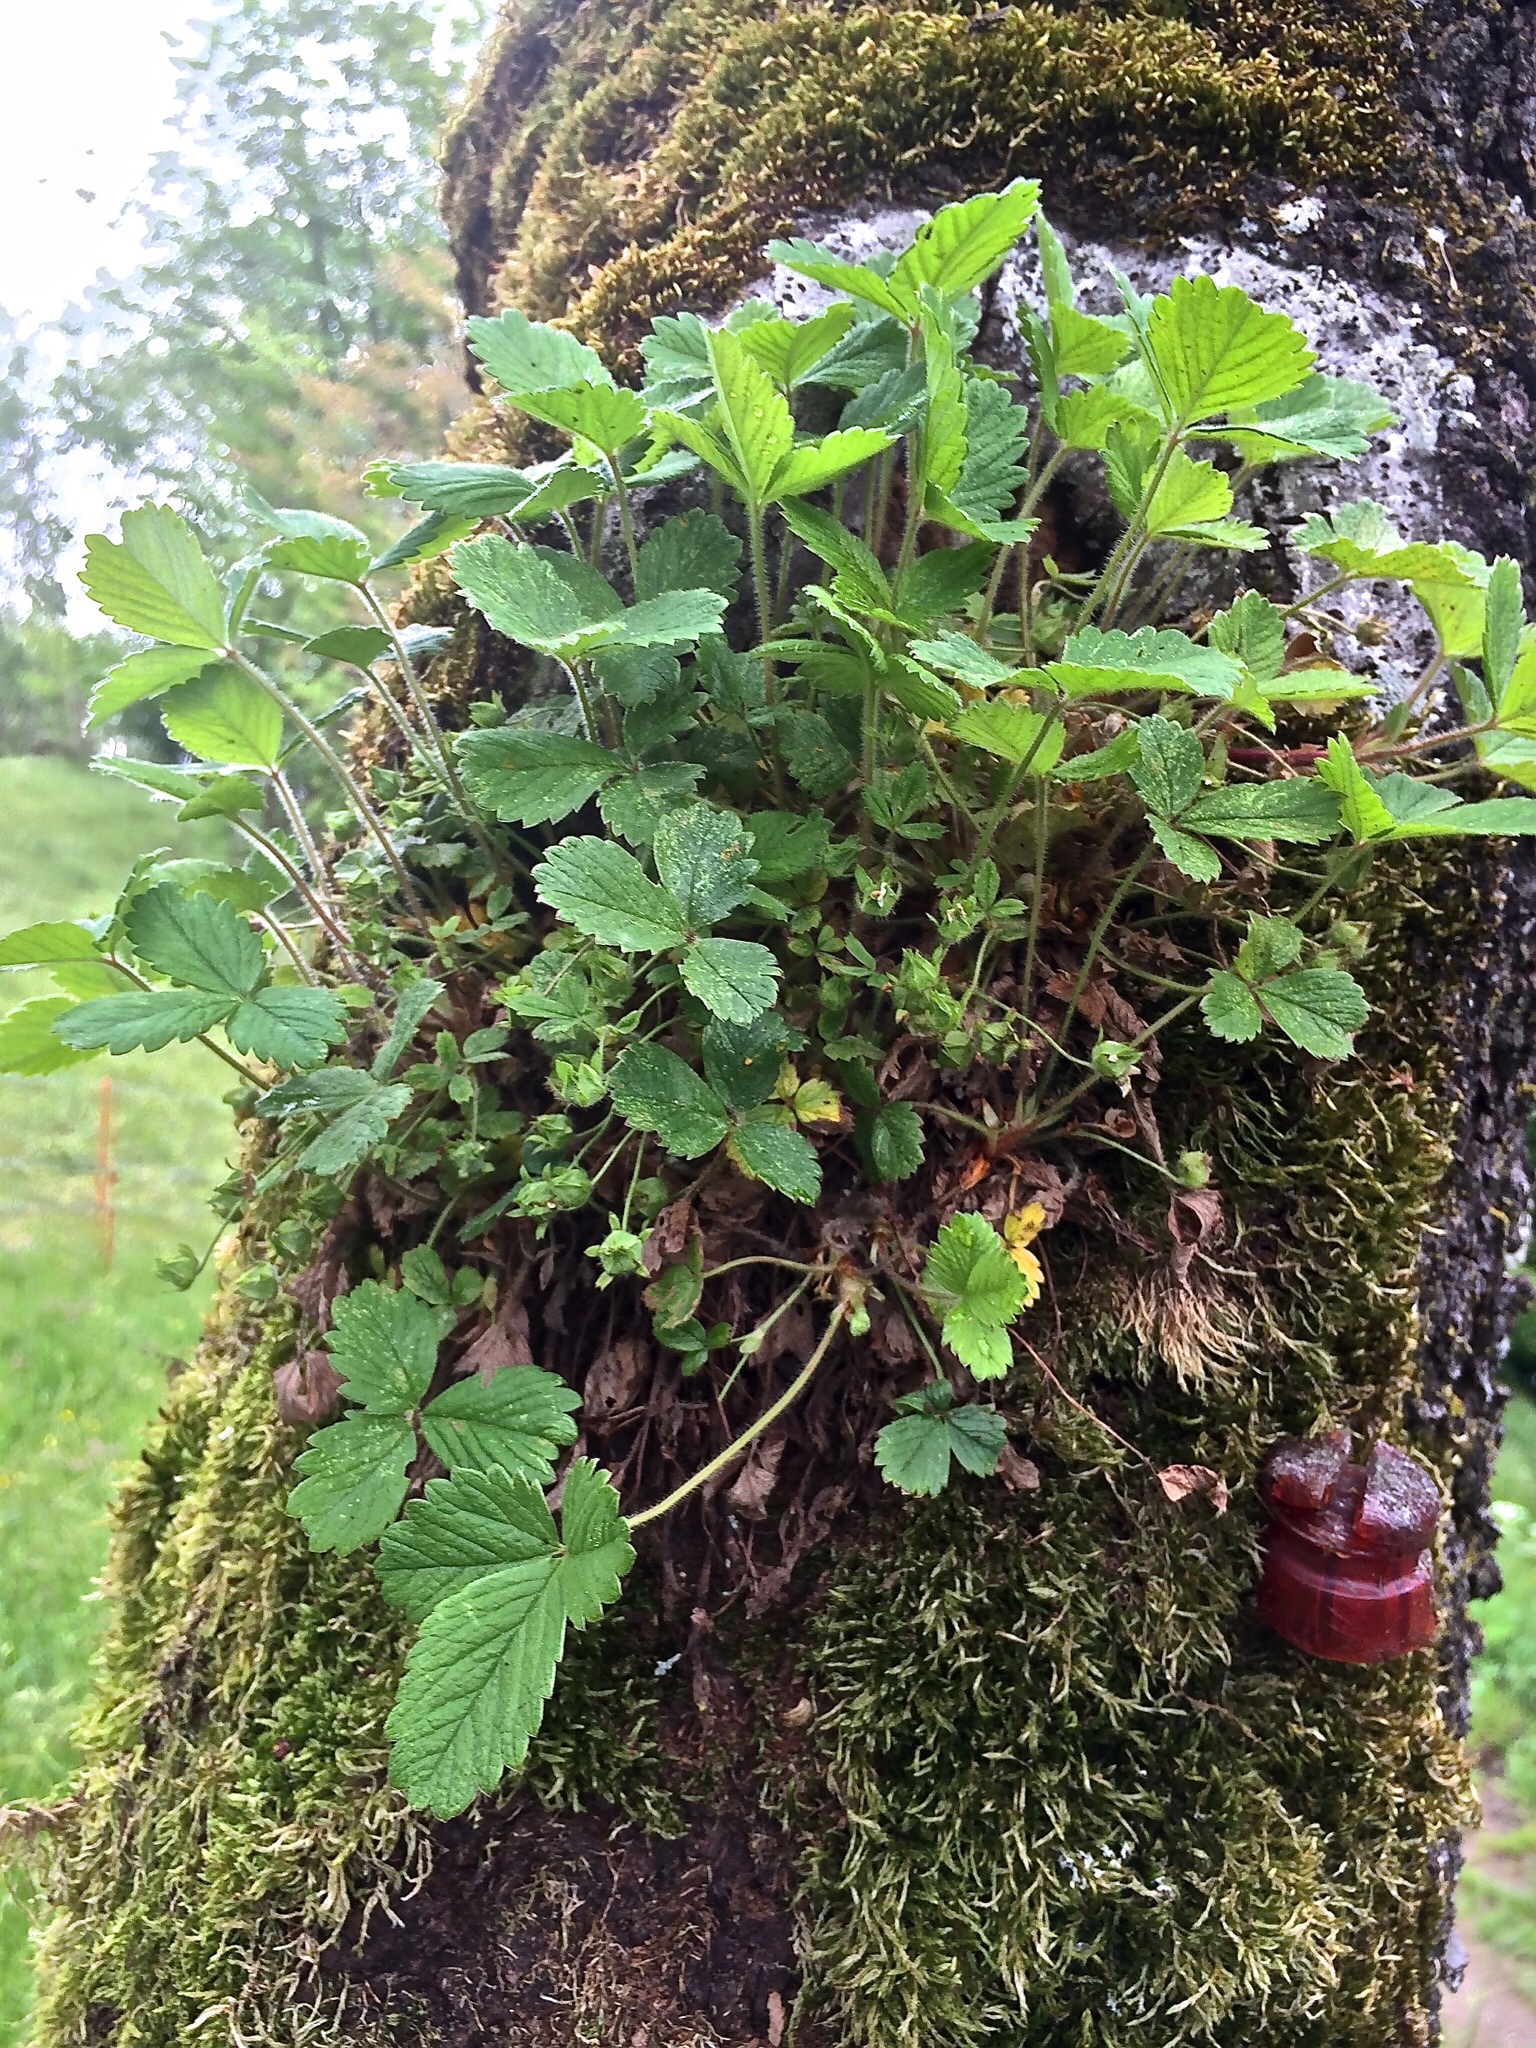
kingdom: Plantae
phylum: Tracheophyta
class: Magnoliopsida
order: Rosales
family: Rosaceae
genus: Fragaria
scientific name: Fragaria vesca
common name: Wild strawberry
